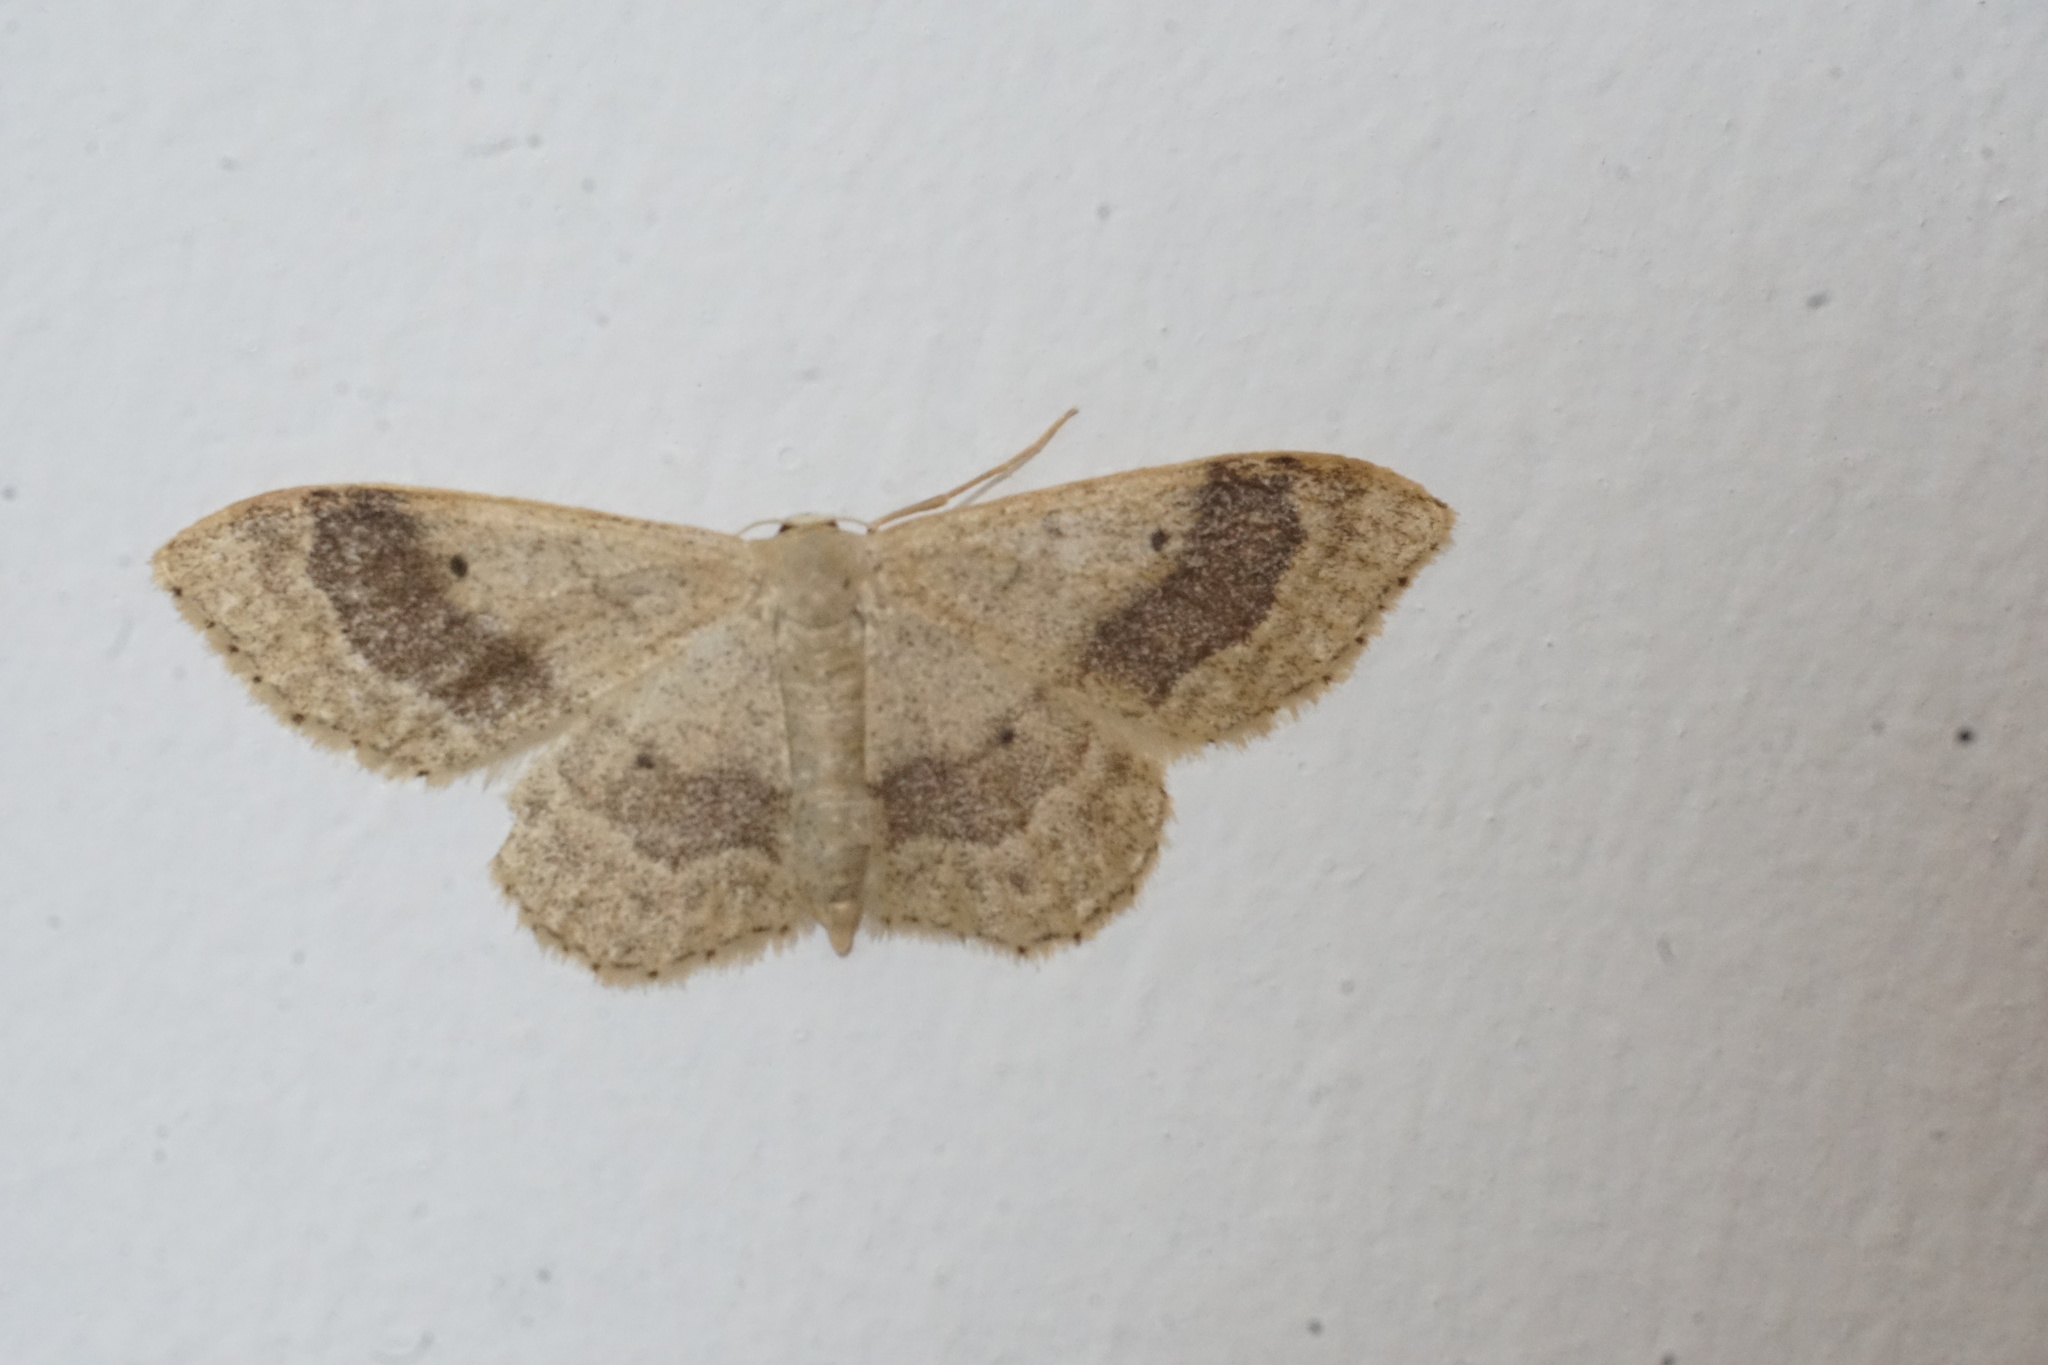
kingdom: Animalia
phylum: Arthropoda
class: Insecta
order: Lepidoptera
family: Geometridae
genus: Idaea
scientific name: Idaea aversata
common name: Riband wave
